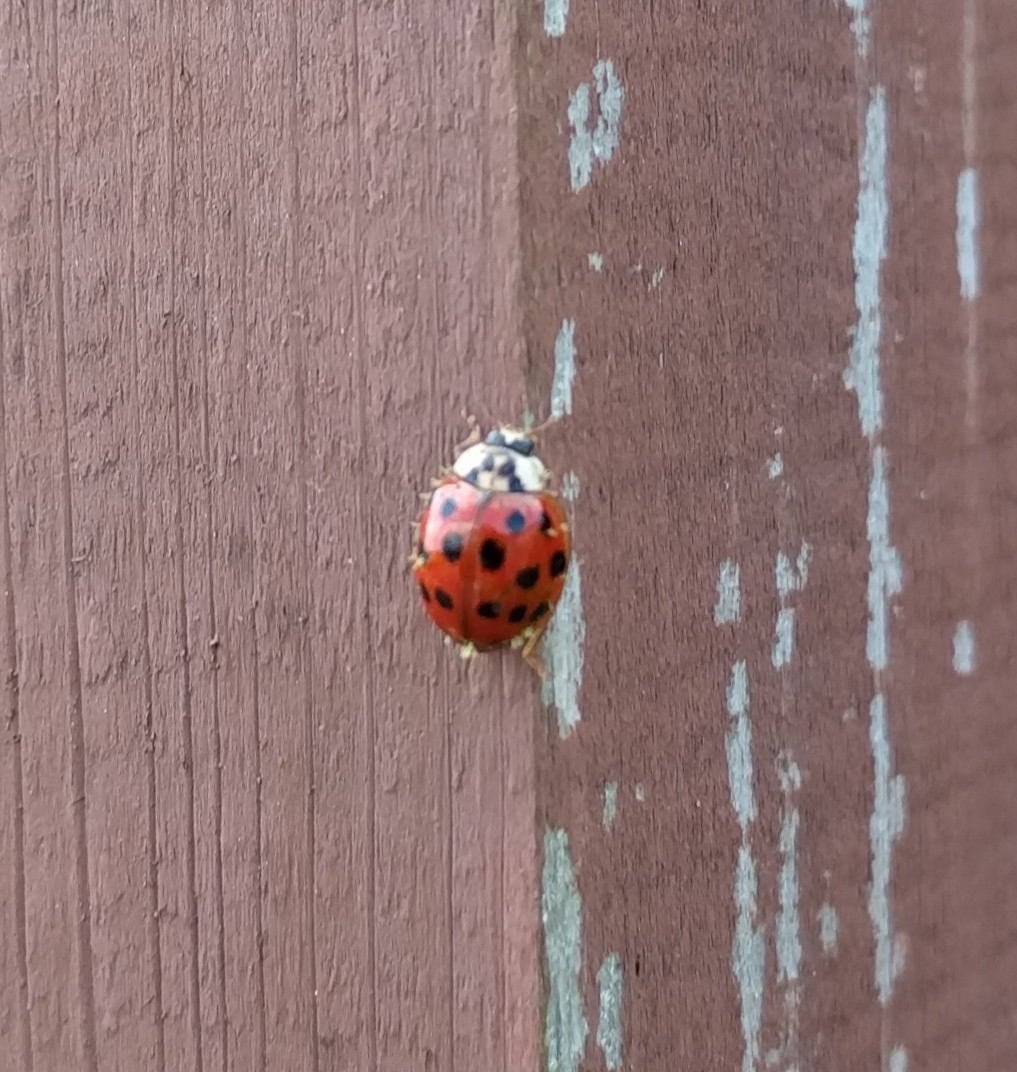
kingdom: Animalia
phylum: Arthropoda
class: Insecta
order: Coleoptera
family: Coccinellidae
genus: Harmonia
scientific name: Harmonia axyridis
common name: Harlequin ladybird
